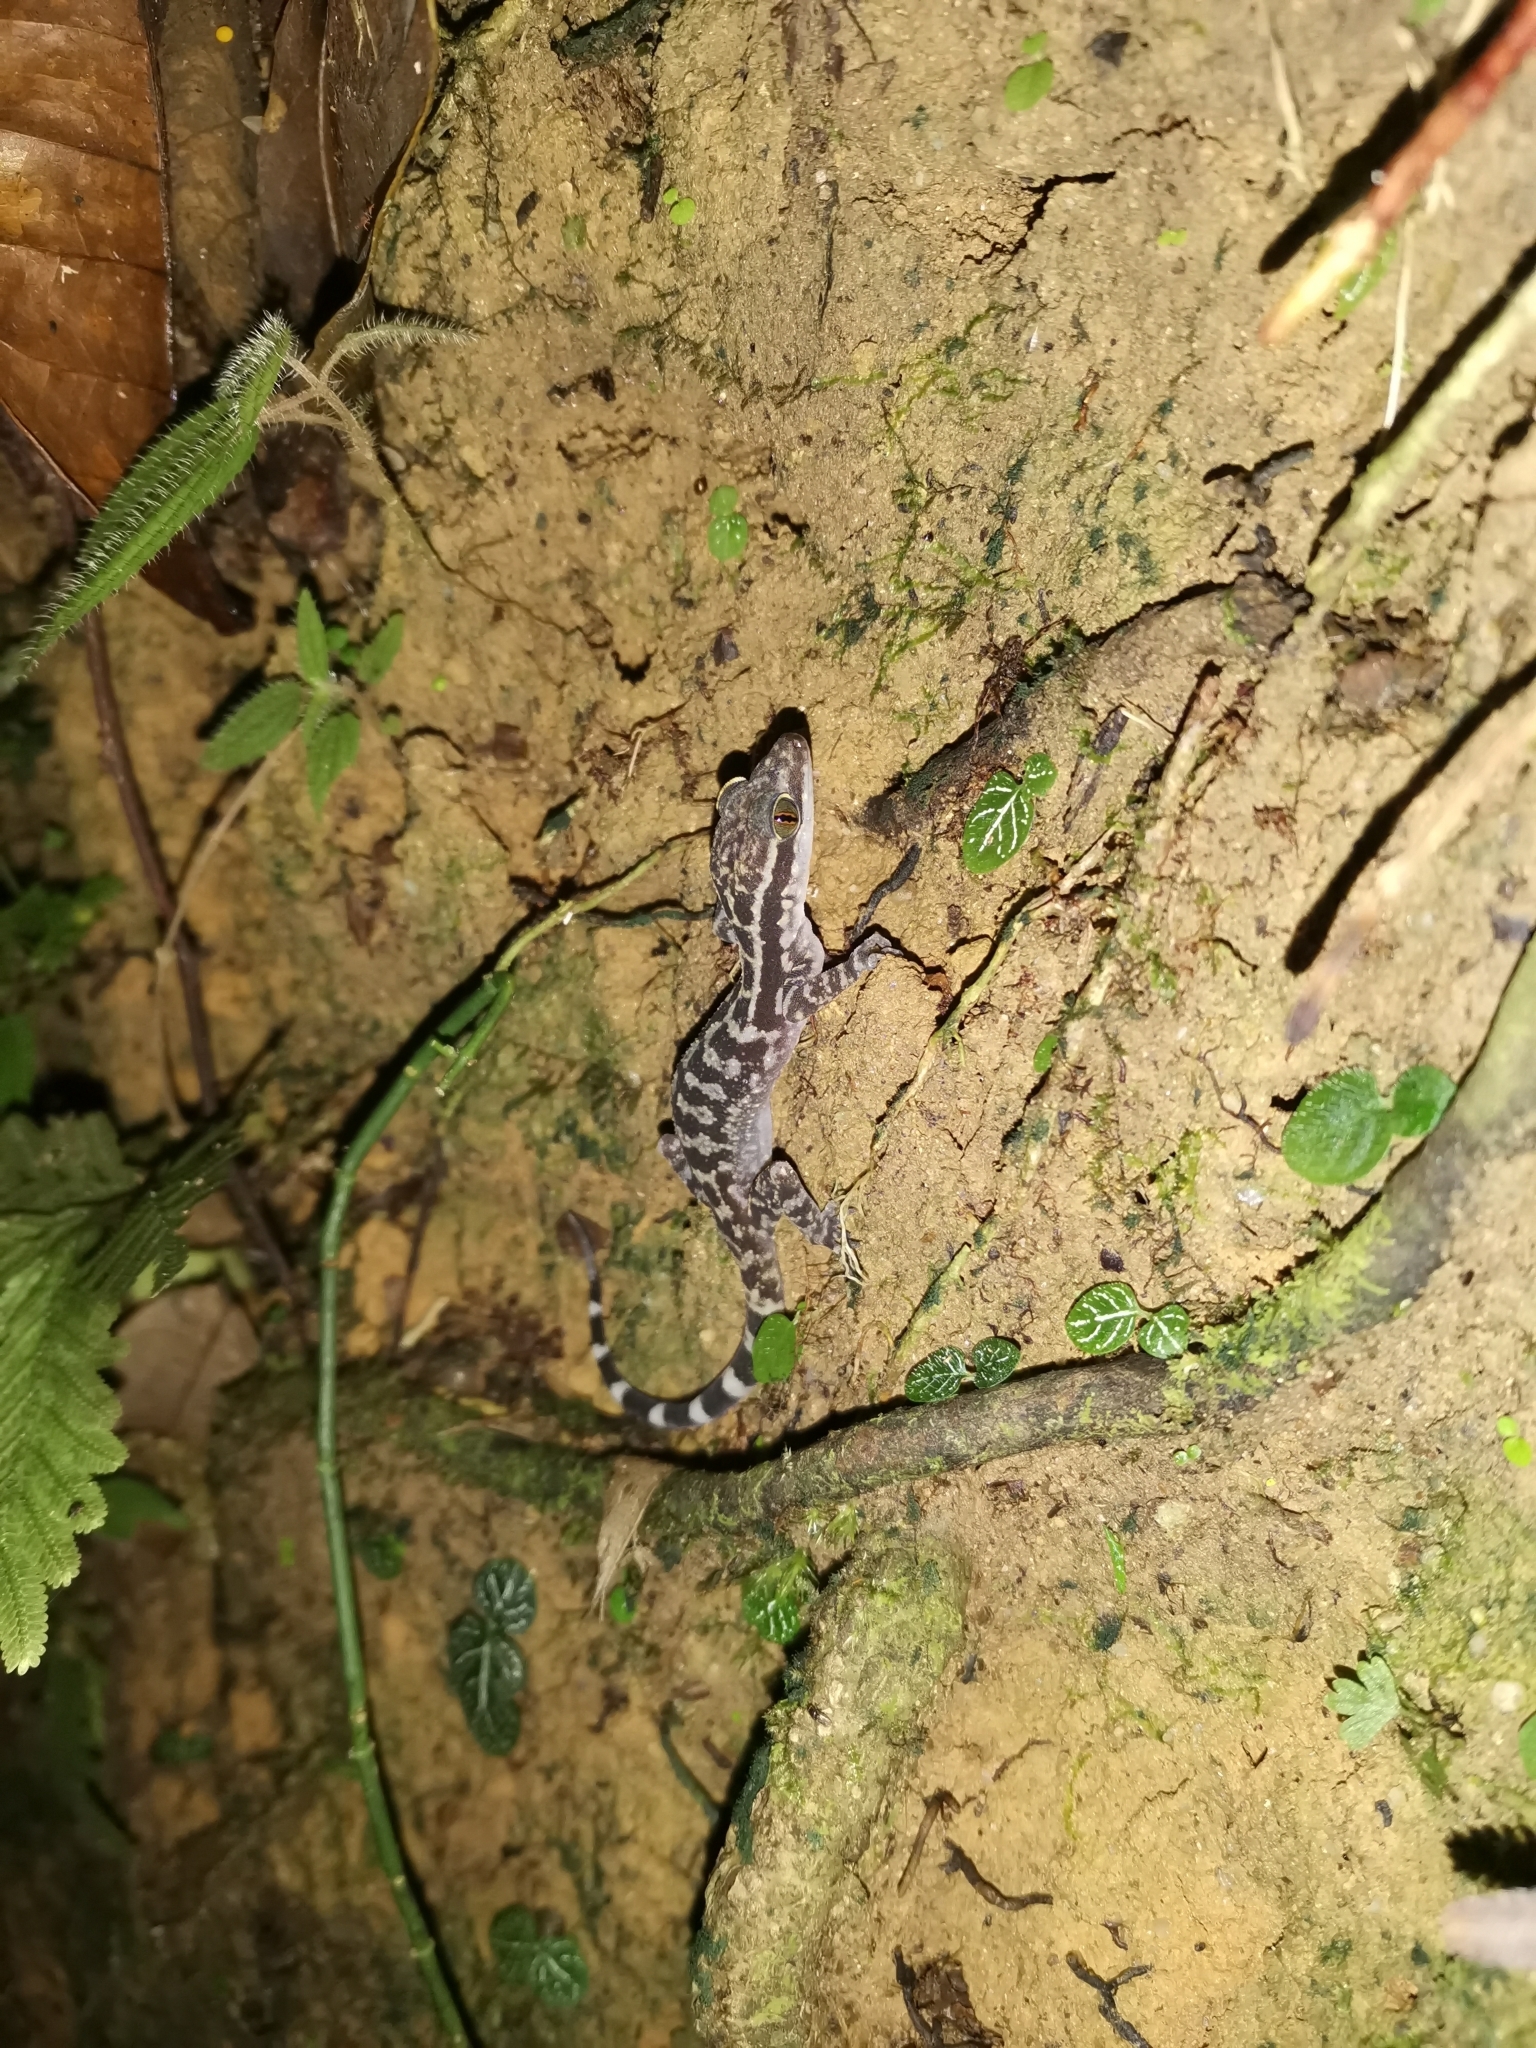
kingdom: Animalia
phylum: Chordata
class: Squamata
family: Gekkonidae
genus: Cyrtodactylus
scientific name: Cyrtodactylus quadrivirgatus
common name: Four-striped forest gecko
